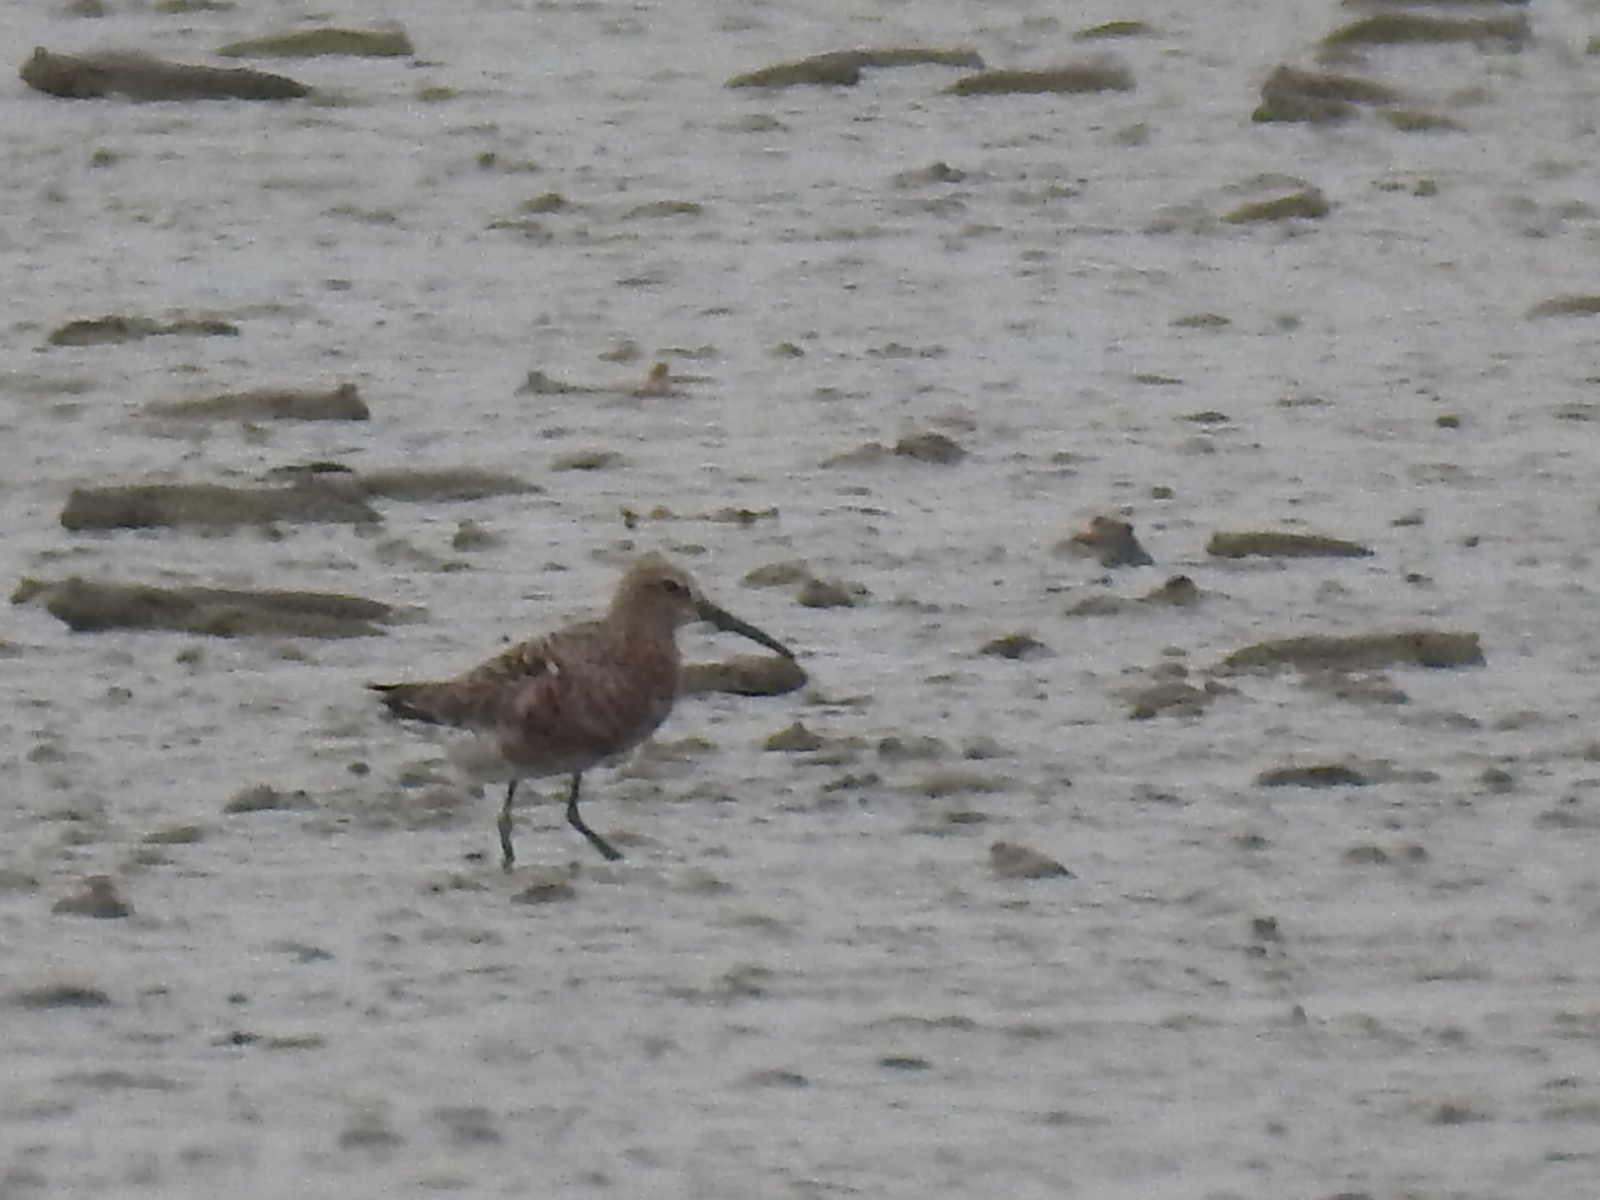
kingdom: Animalia
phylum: Chordata
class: Aves
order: Charadriiformes
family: Scolopacidae
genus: Calidris
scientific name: Calidris ferruginea
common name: Curlew sandpiper
